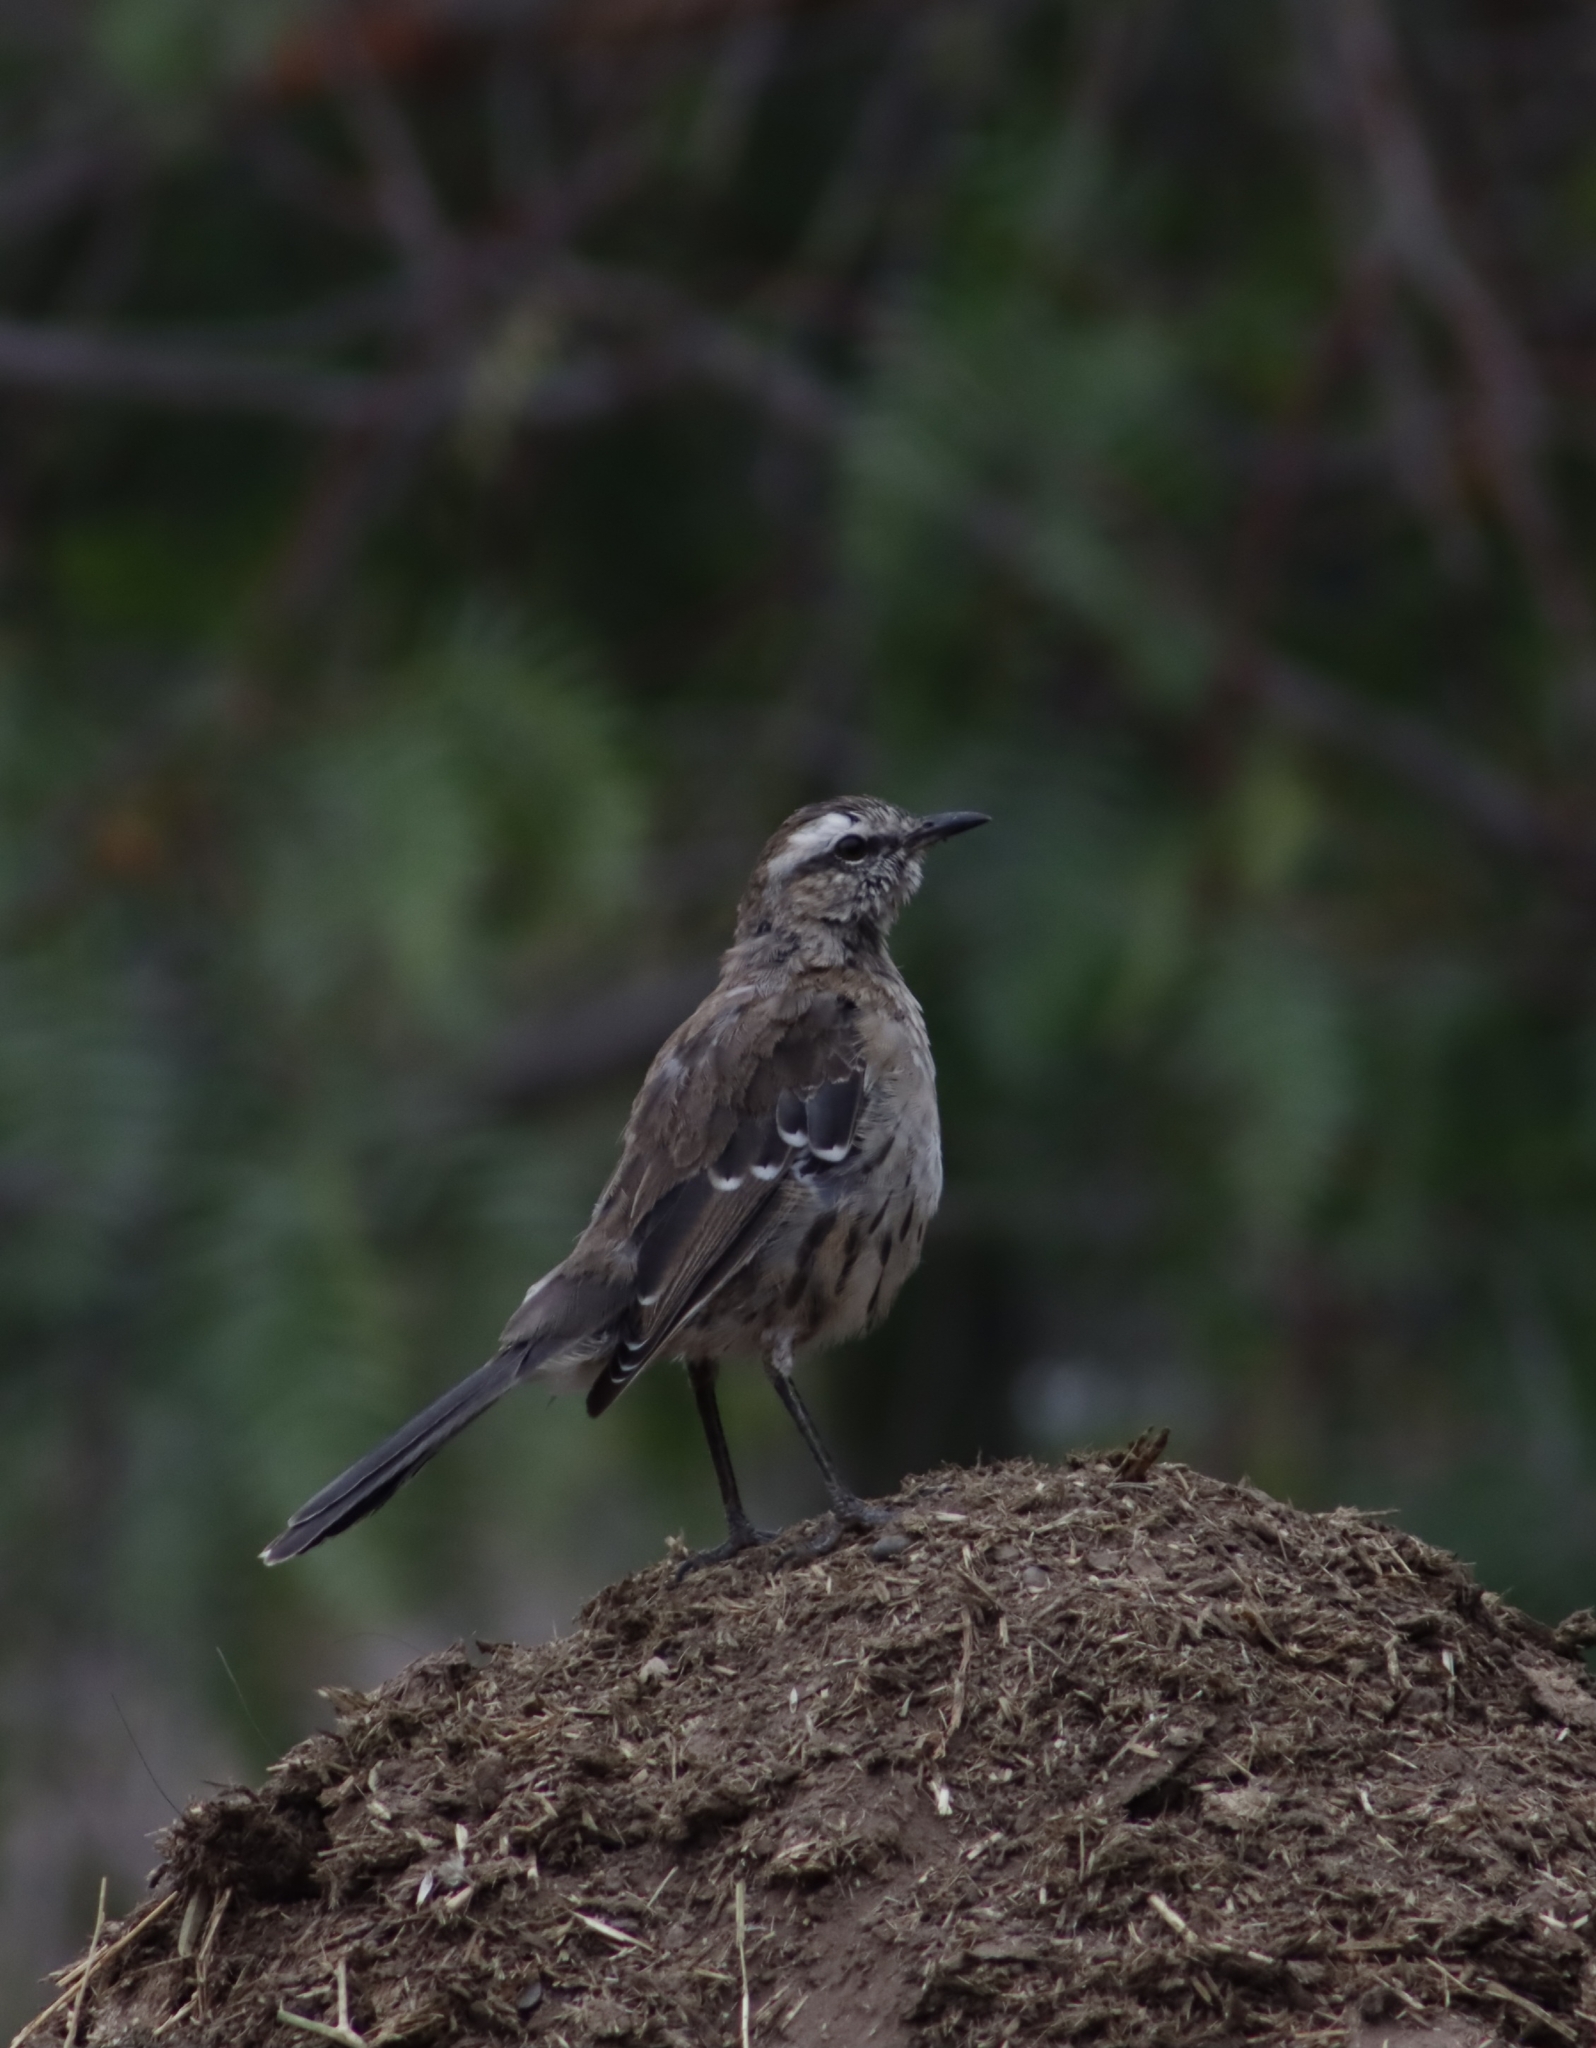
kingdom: Animalia
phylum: Chordata
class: Aves
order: Passeriformes
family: Mimidae
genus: Mimus
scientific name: Mimus thenca
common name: Chilean mockingbird
